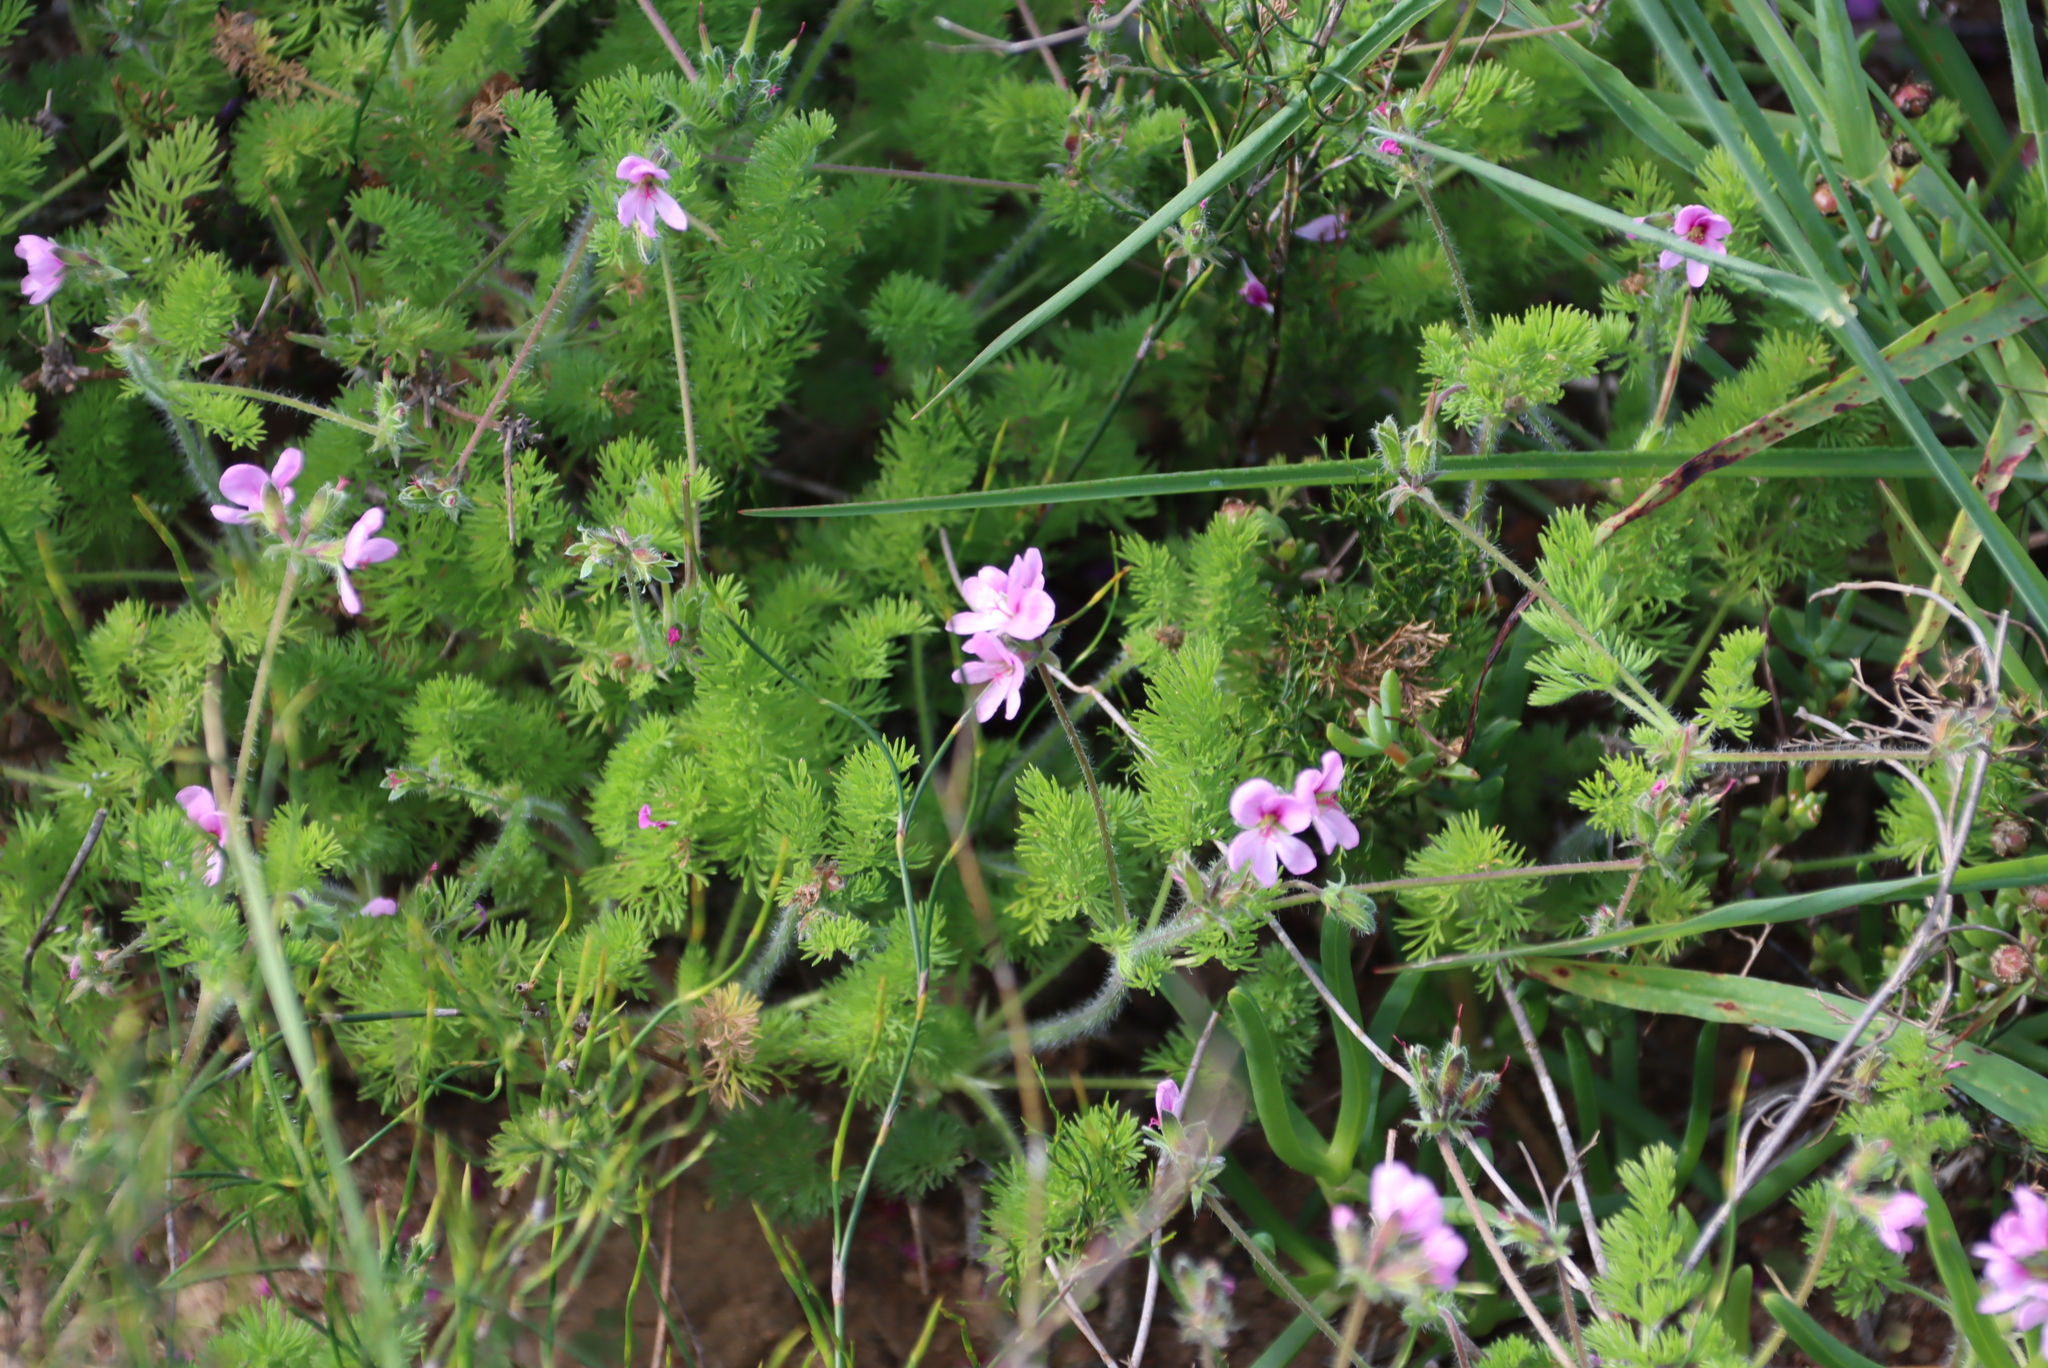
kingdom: Plantae
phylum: Tracheophyta
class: Magnoliopsida
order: Geraniales
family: Geraniaceae
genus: Pelargonium
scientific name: Pelargonium hirtum
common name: Fine-leaf pelargonium
